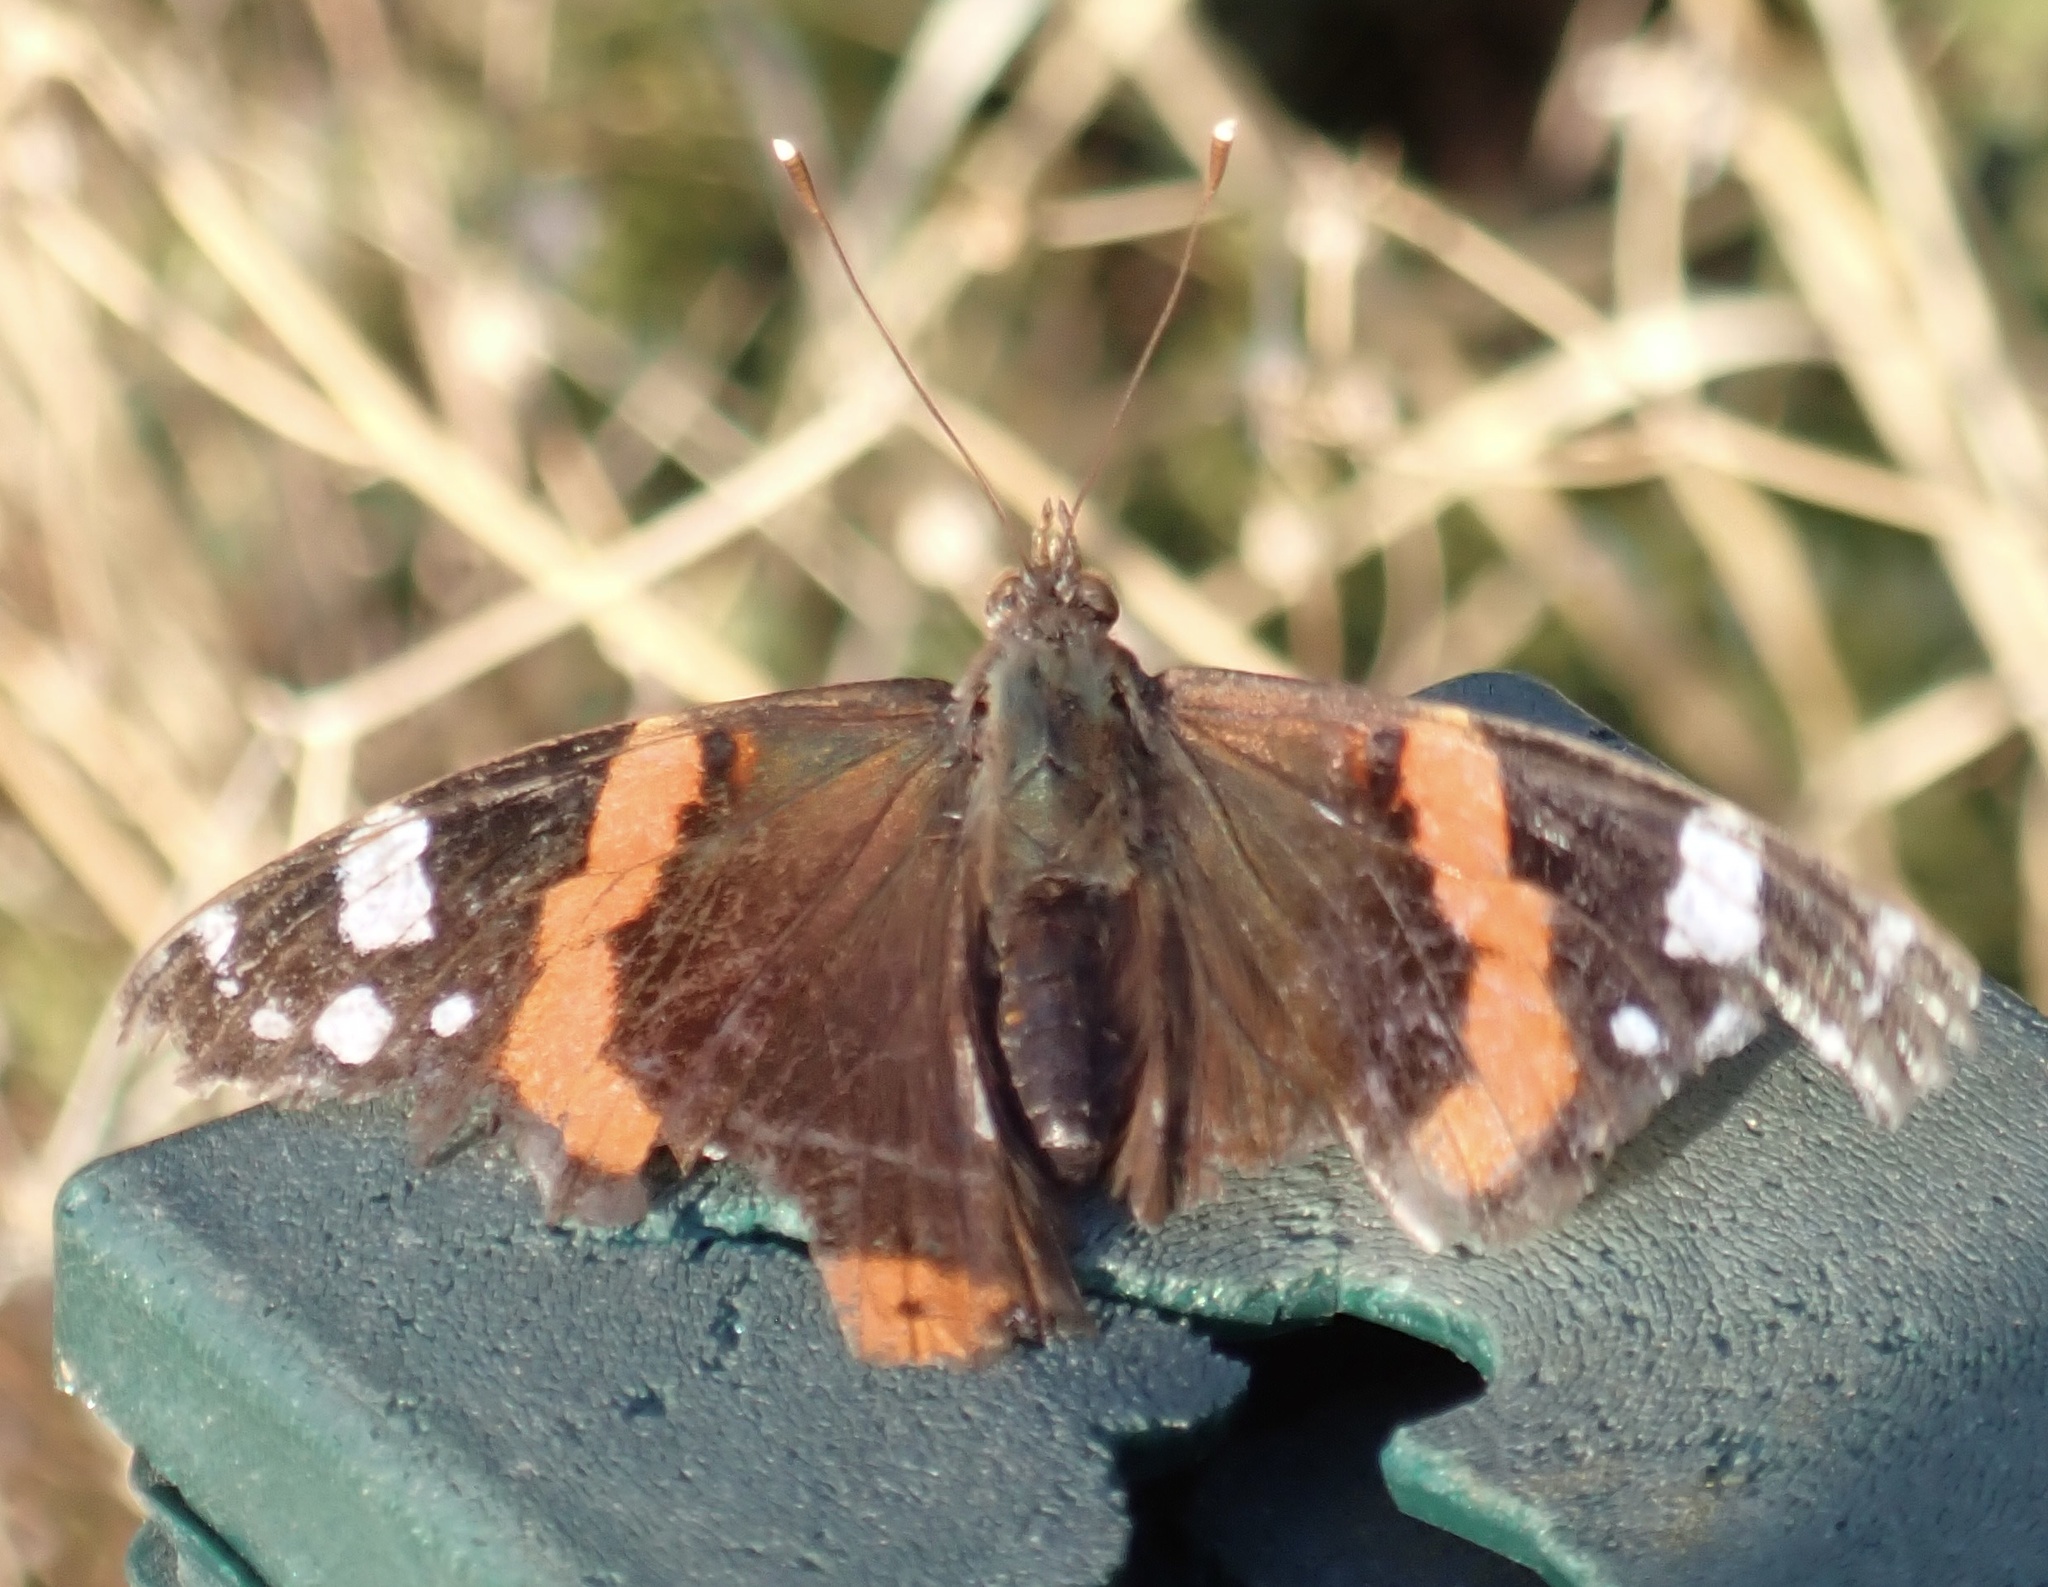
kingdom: Animalia
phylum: Arthropoda
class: Insecta
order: Lepidoptera
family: Nymphalidae
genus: Vanessa
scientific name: Vanessa atalanta
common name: Red admiral
